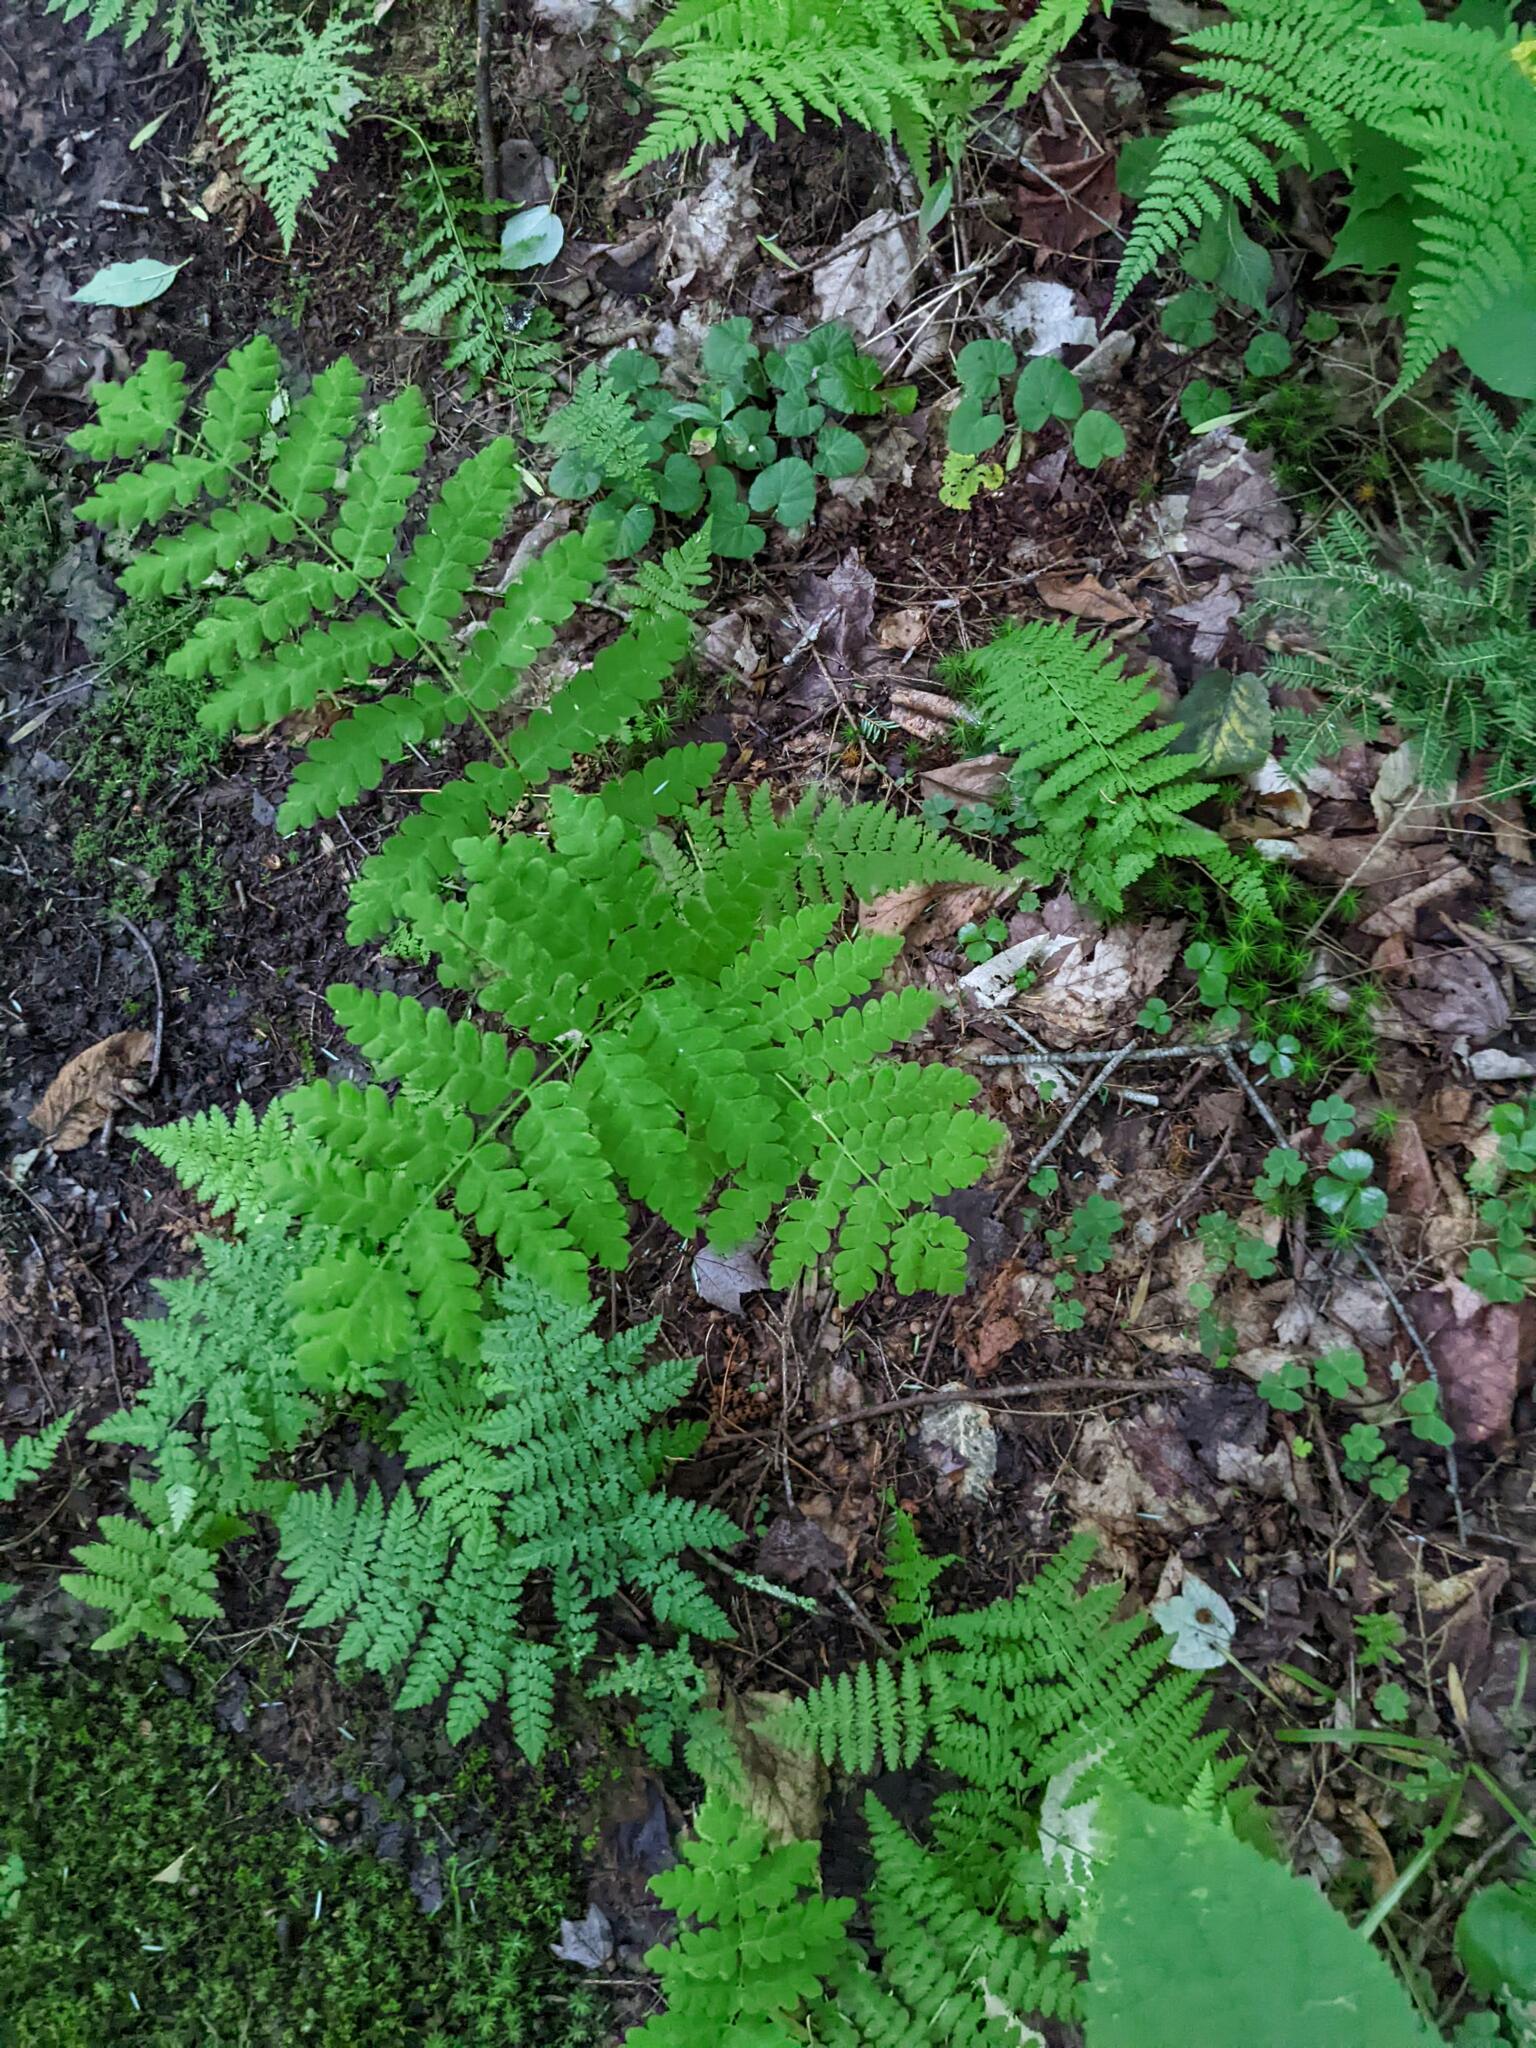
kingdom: Plantae
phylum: Tracheophyta
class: Polypodiopsida
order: Osmundales
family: Osmundaceae
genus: Claytosmunda
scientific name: Claytosmunda claytoniana
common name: Clayton's fern
